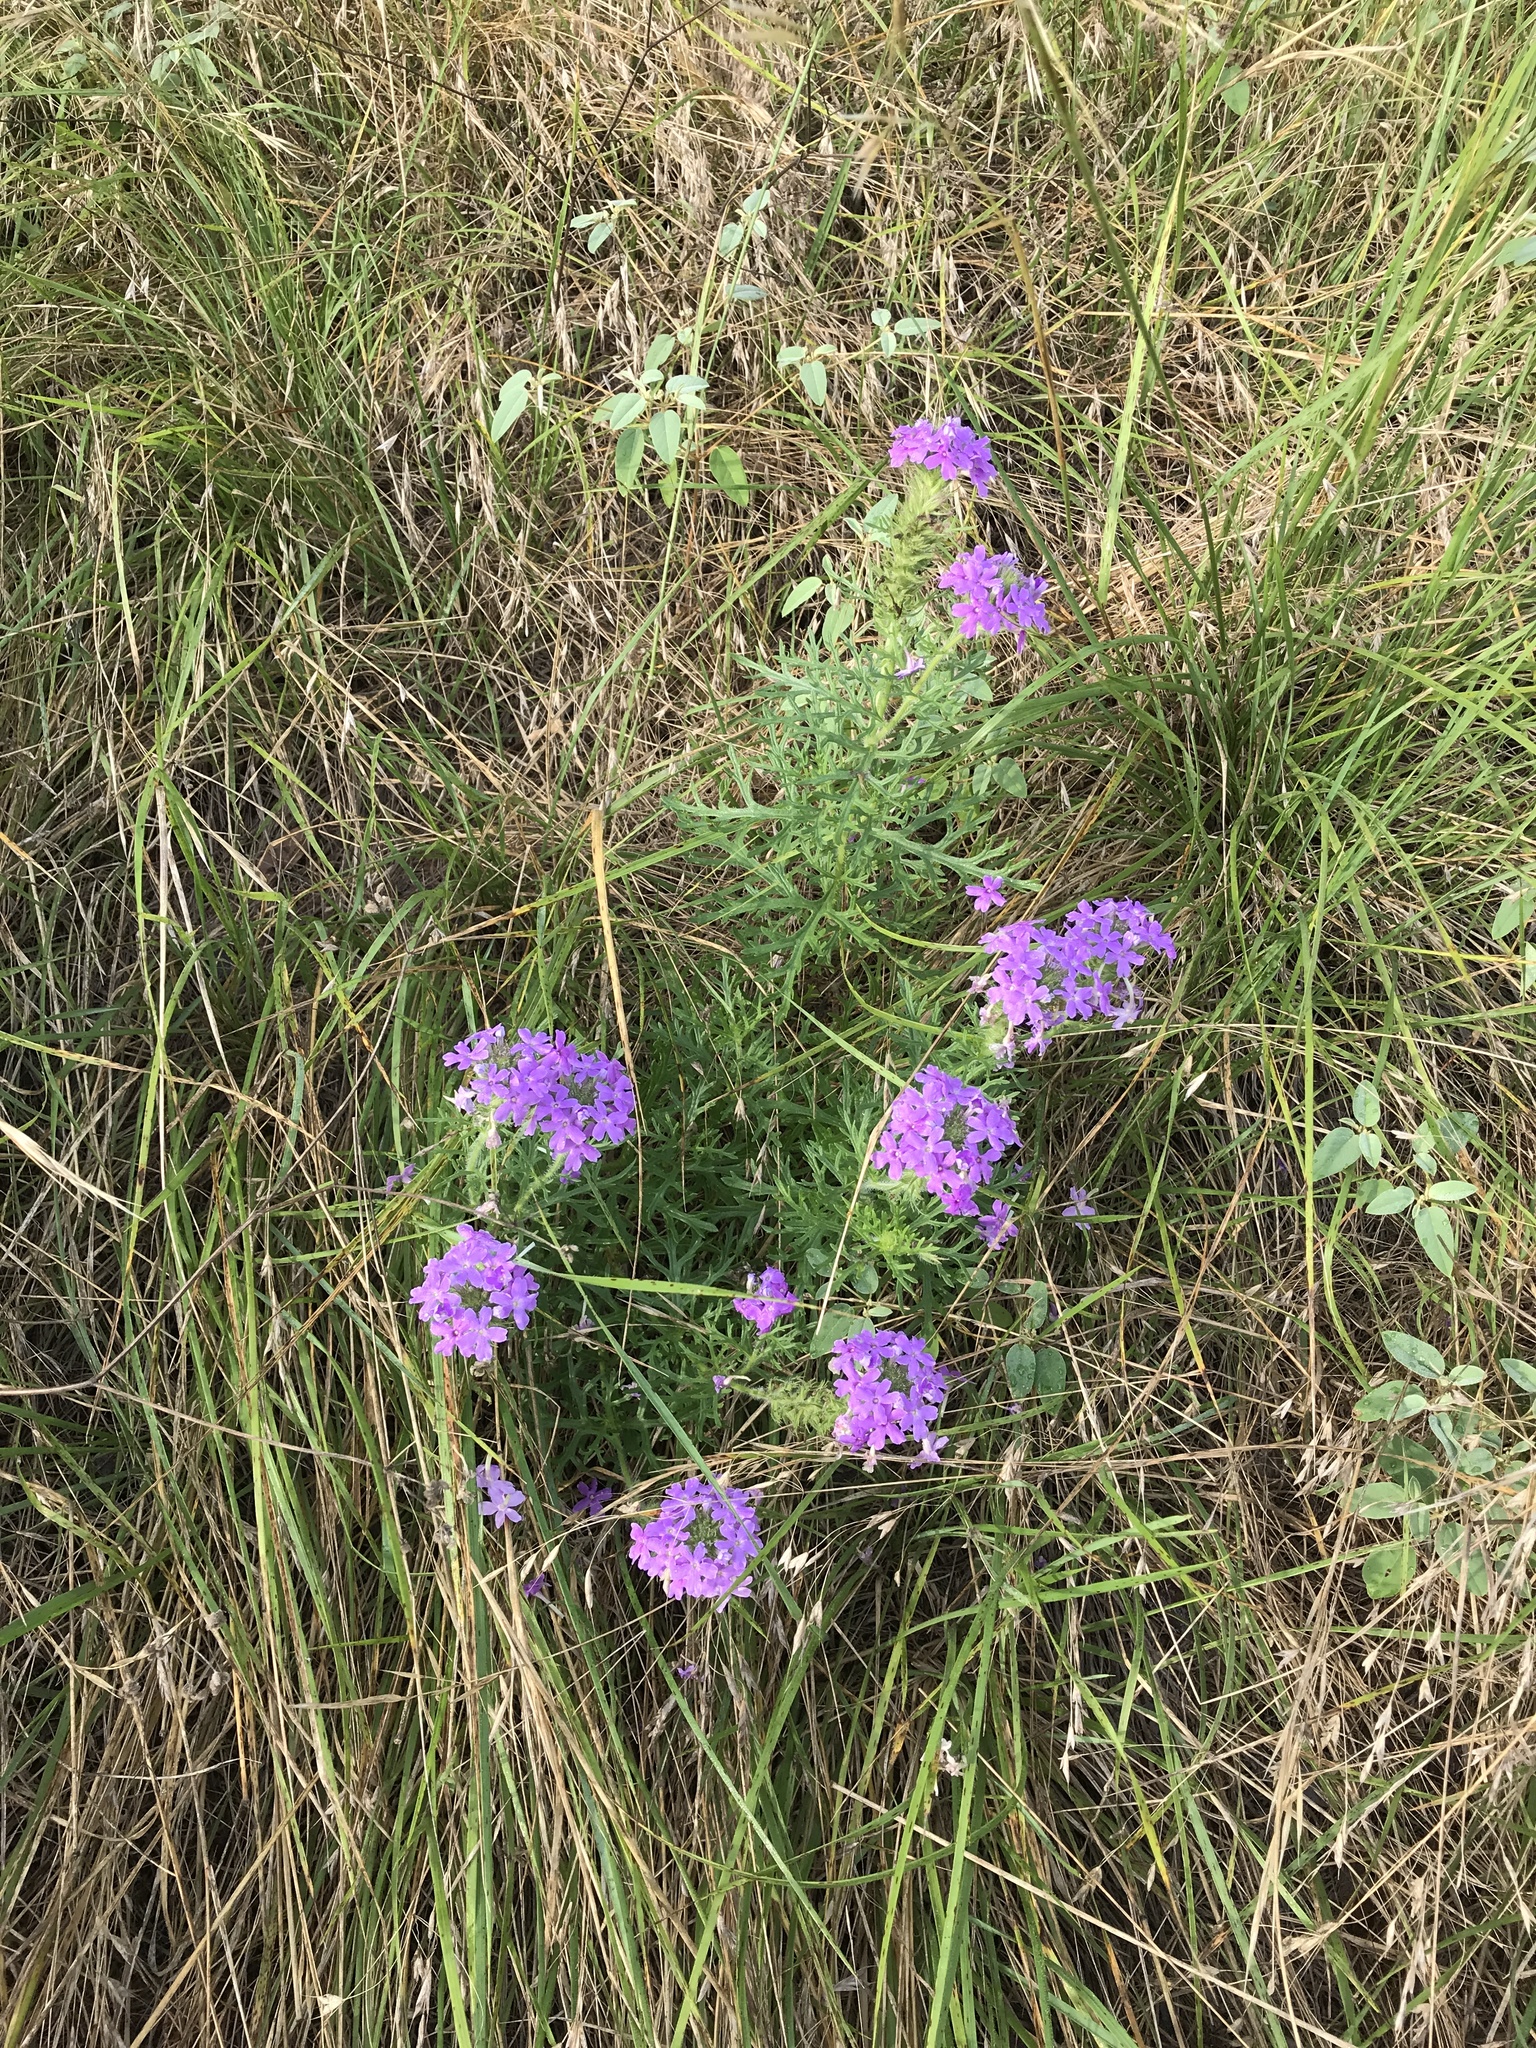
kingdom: Plantae
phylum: Tracheophyta
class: Magnoliopsida
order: Lamiales
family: Verbenaceae
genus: Verbena
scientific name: Verbena bipinnatifida
